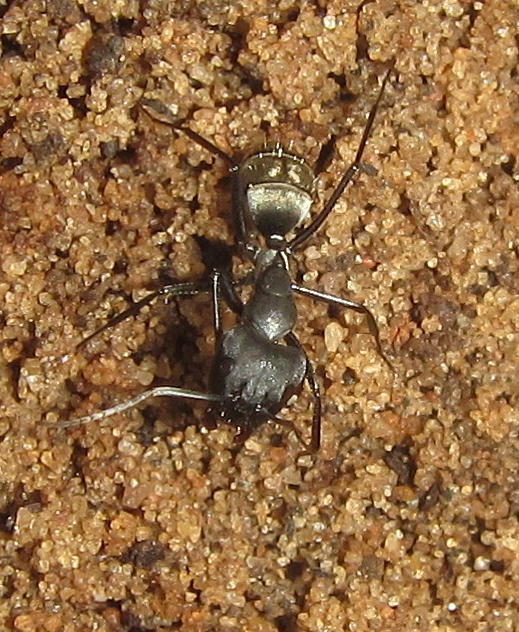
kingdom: Animalia
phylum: Arthropoda
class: Insecta
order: Hymenoptera
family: Formicidae
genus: Camponotus
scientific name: Camponotus cinctellus
